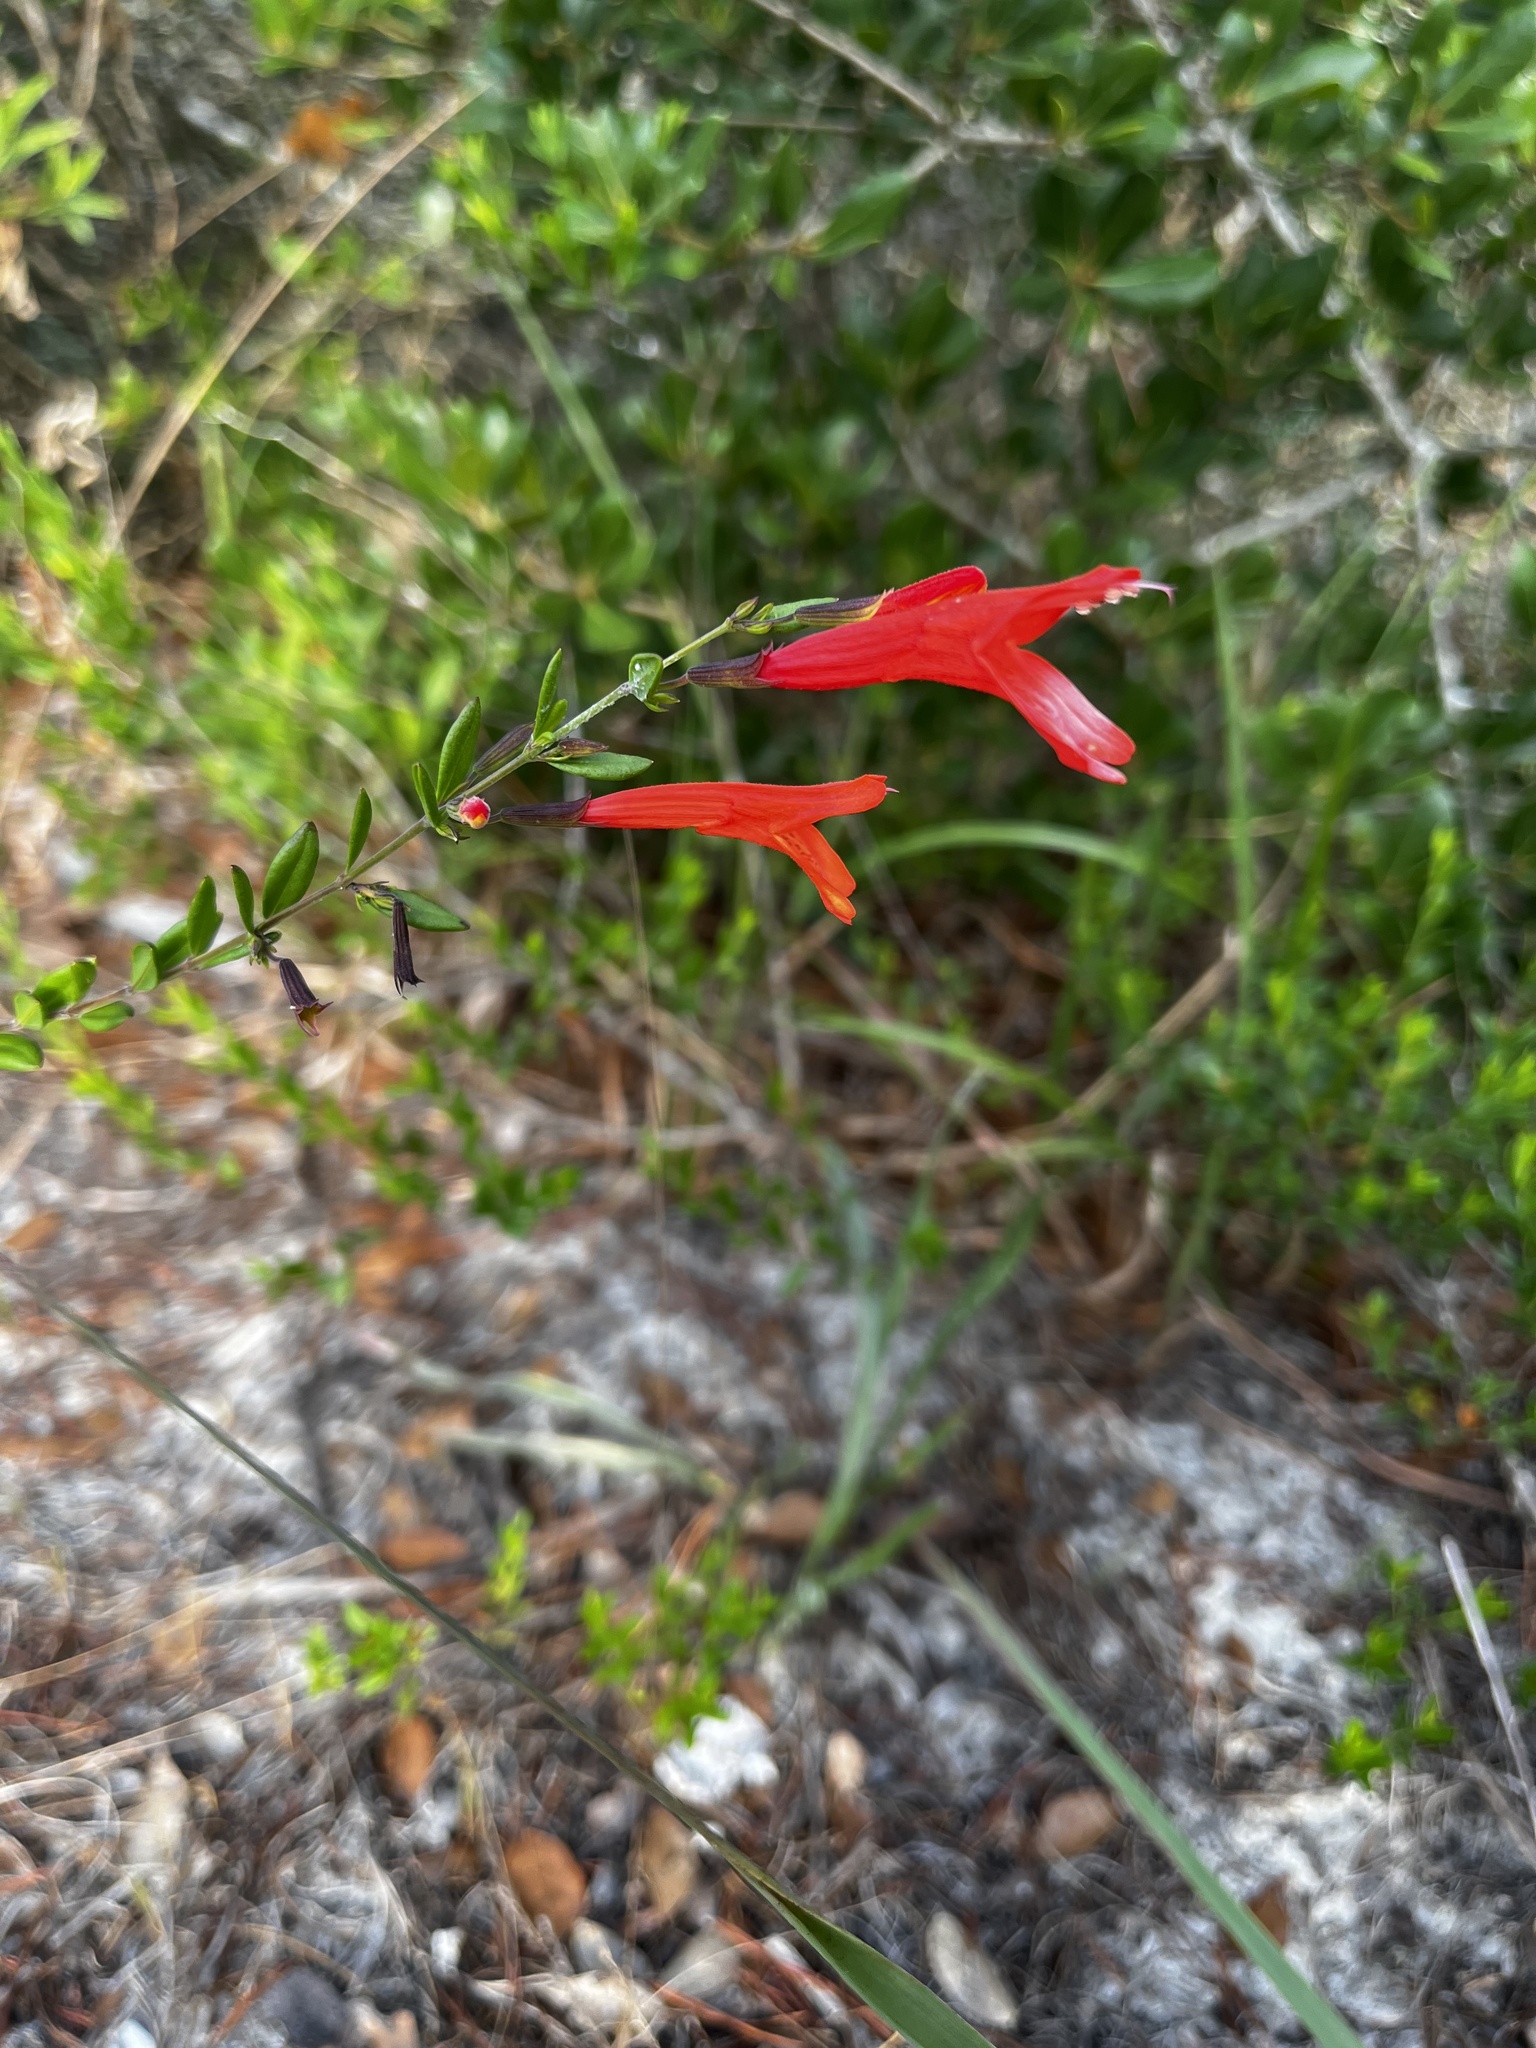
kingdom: Plantae
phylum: Tracheophyta
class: Magnoliopsida
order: Lamiales
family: Lamiaceae
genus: Clinopodium
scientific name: Clinopodium coccineum
